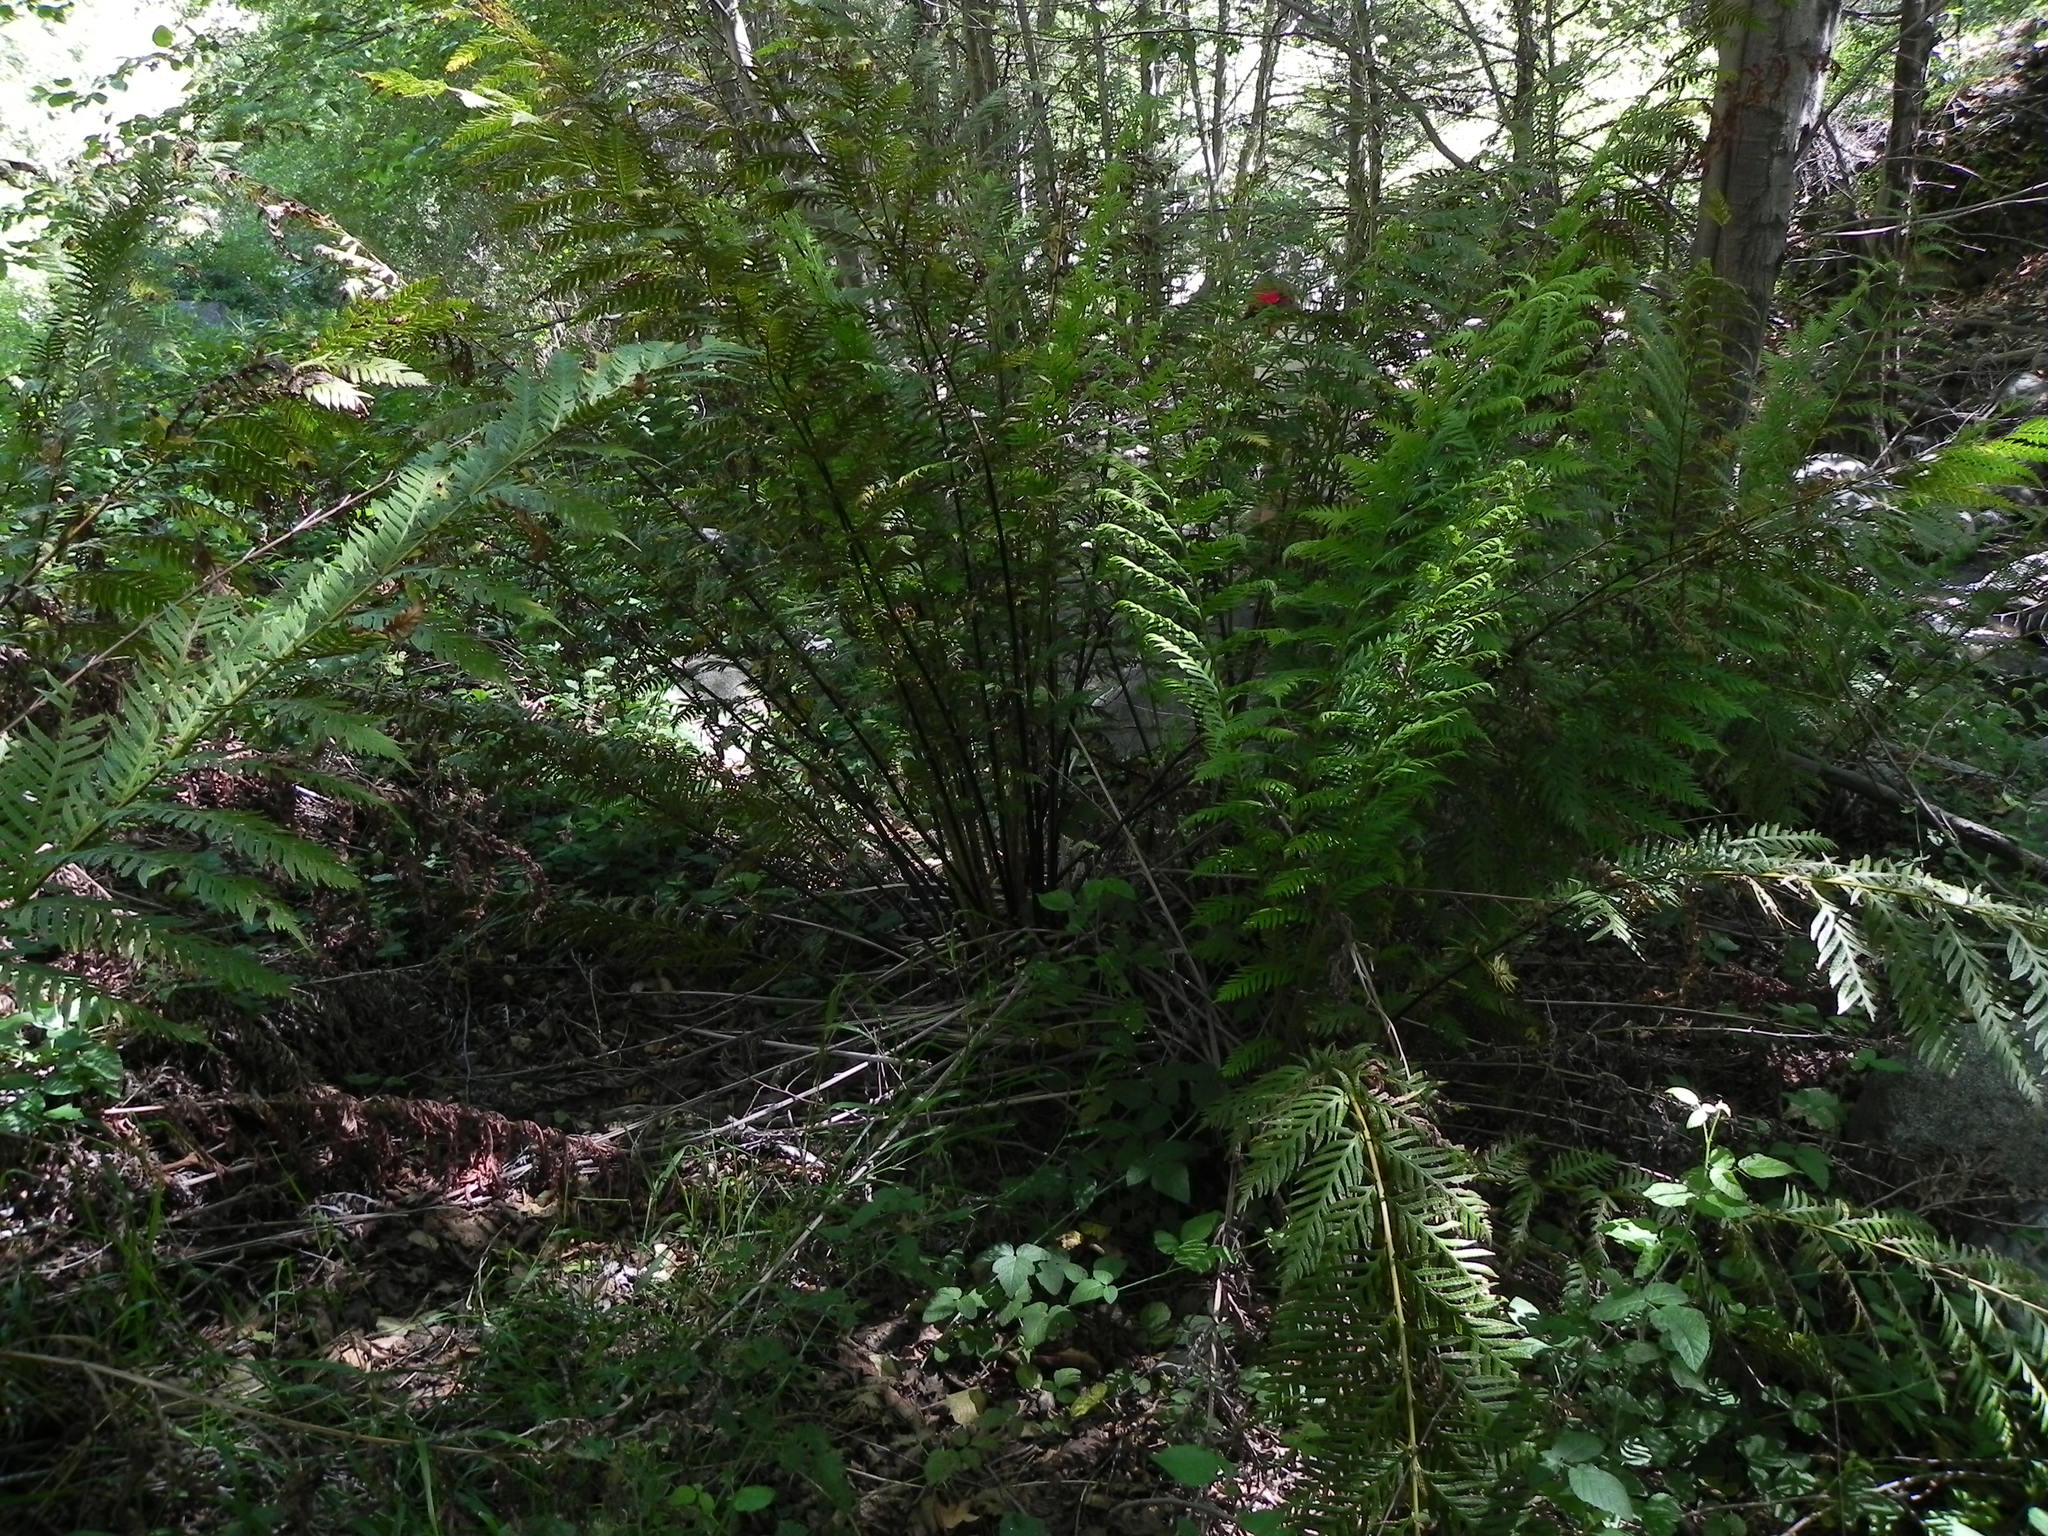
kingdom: Plantae
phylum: Tracheophyta
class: Polypodiopsida
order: Polypodiales
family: Blechnaceae
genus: Woodwardia
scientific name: Woodwardia fimbriata
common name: Giant chain fern
